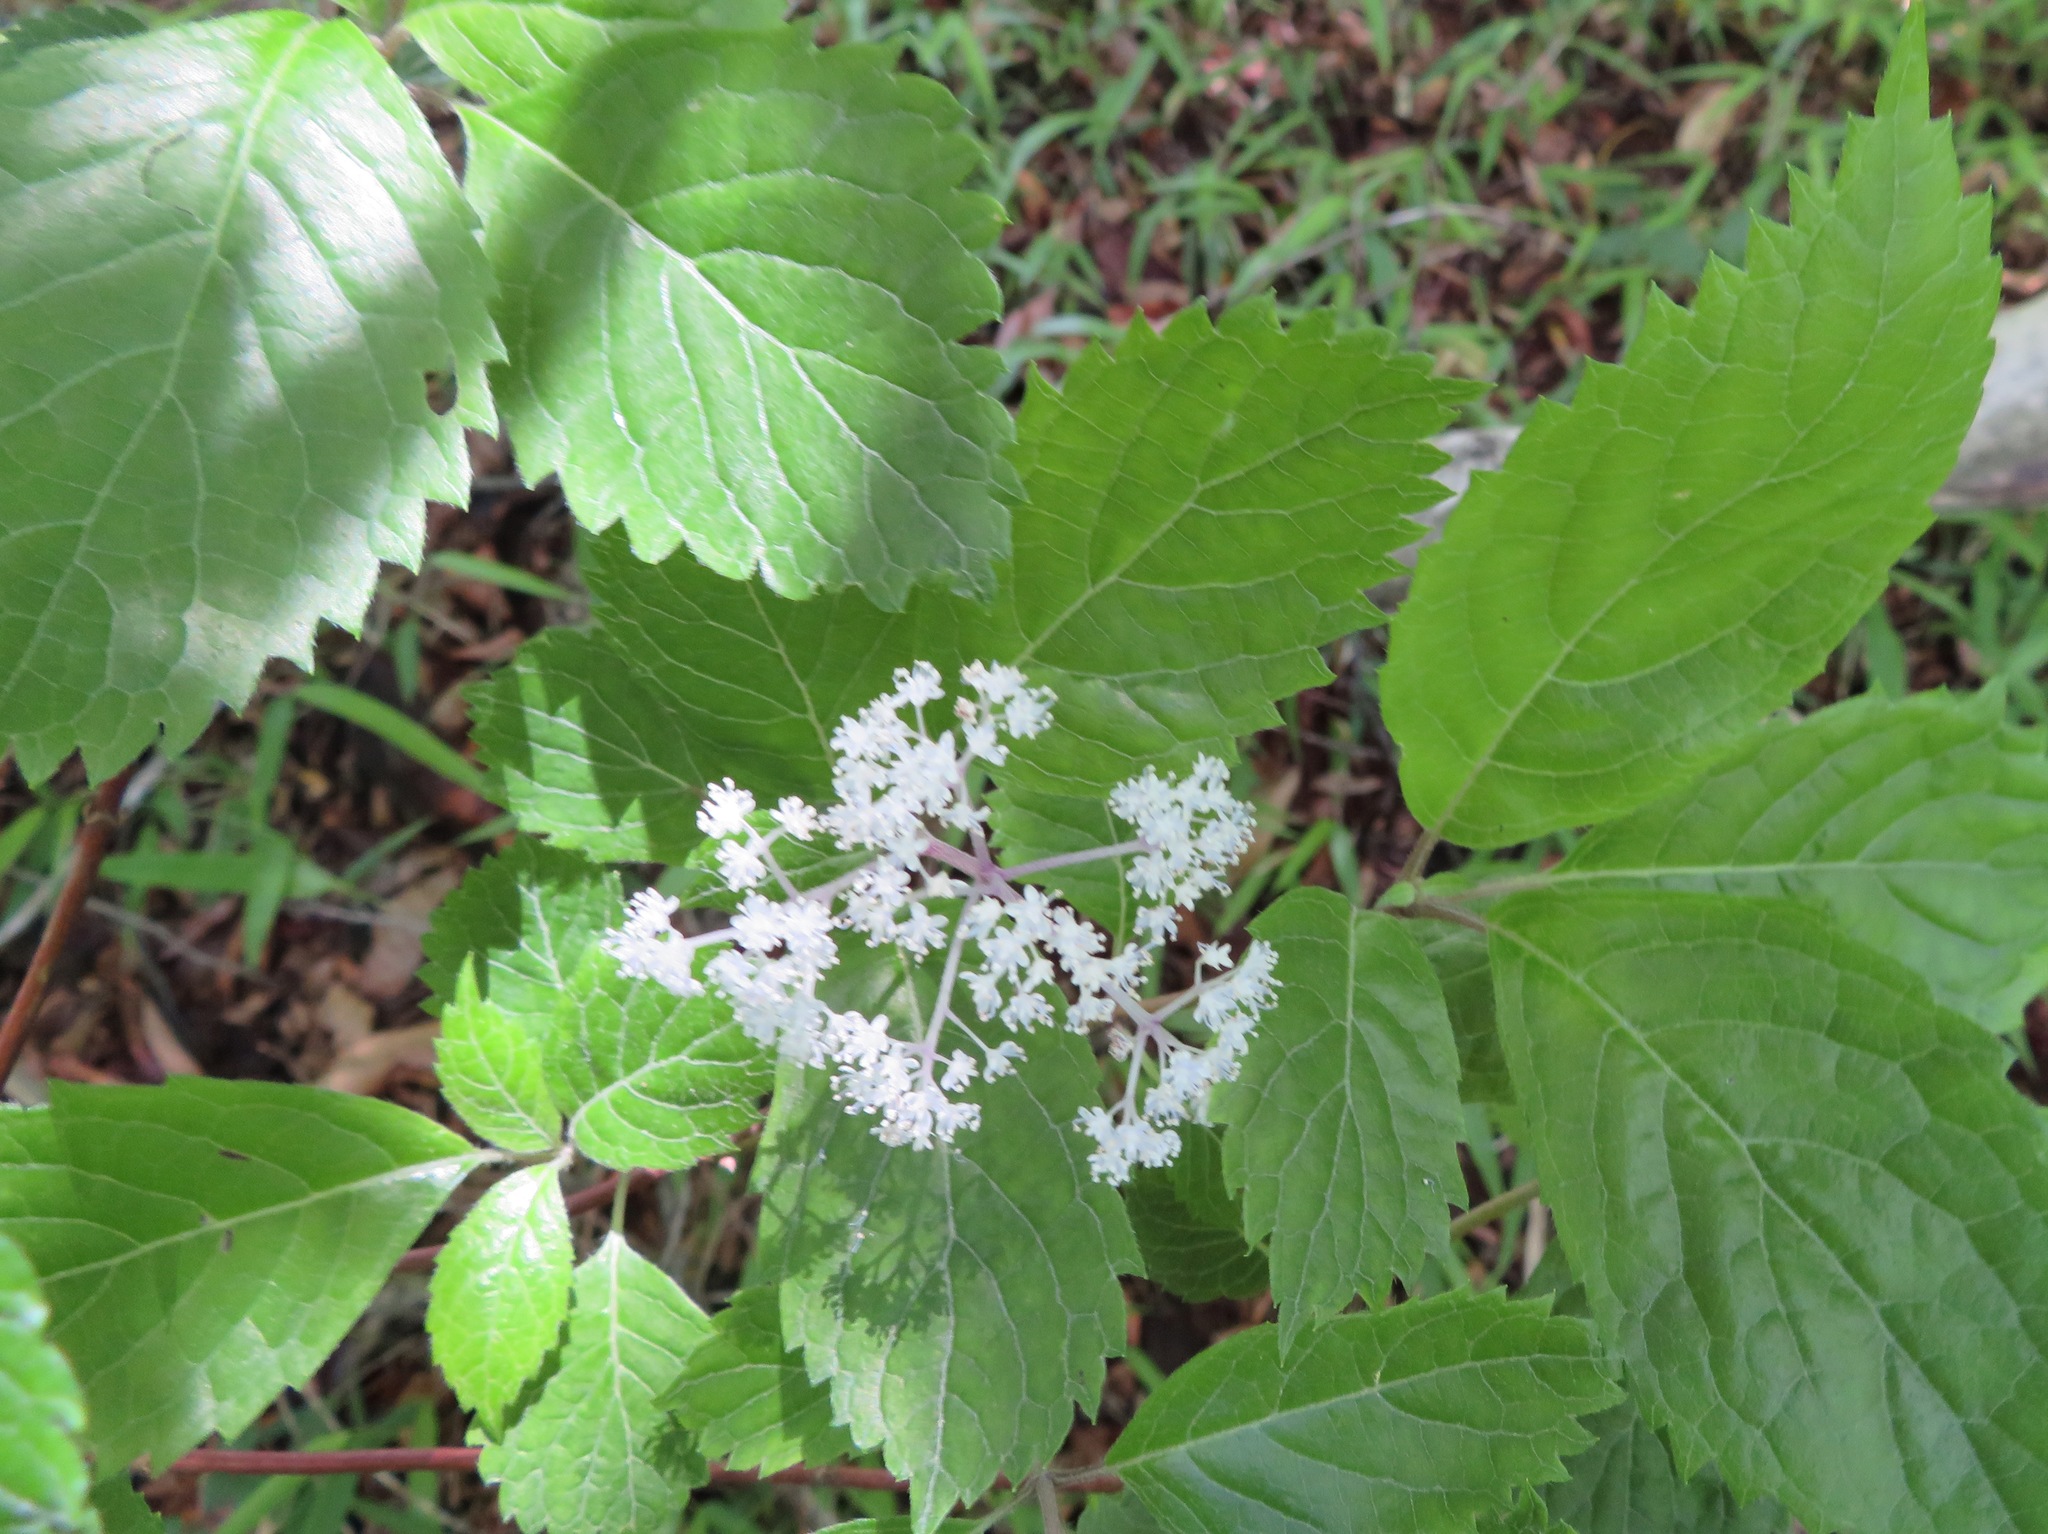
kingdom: Plantae
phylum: Tracheophyta
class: Magnoliopsida
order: Cornales
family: Hydrangeaceae
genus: Hydrangea
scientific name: Hydrangea hirta
